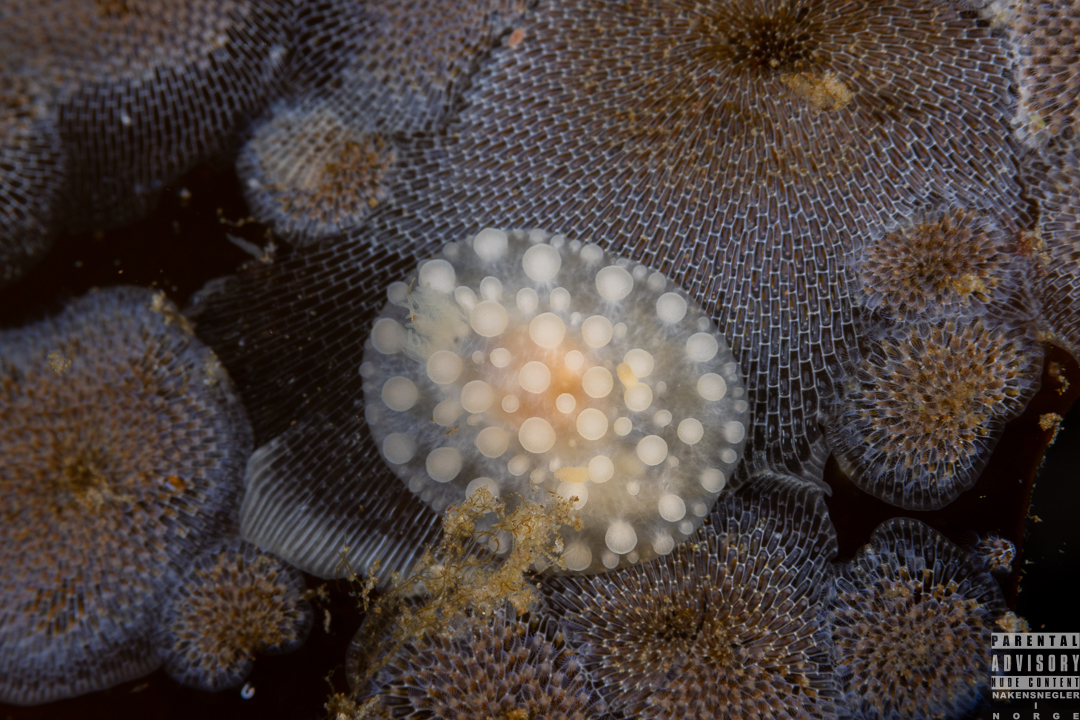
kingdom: Animalia
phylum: Mollusca
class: Gastropoda
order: Nudibranchia
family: Onchidorididae
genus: Adalaria
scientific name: Adalaria loveni
